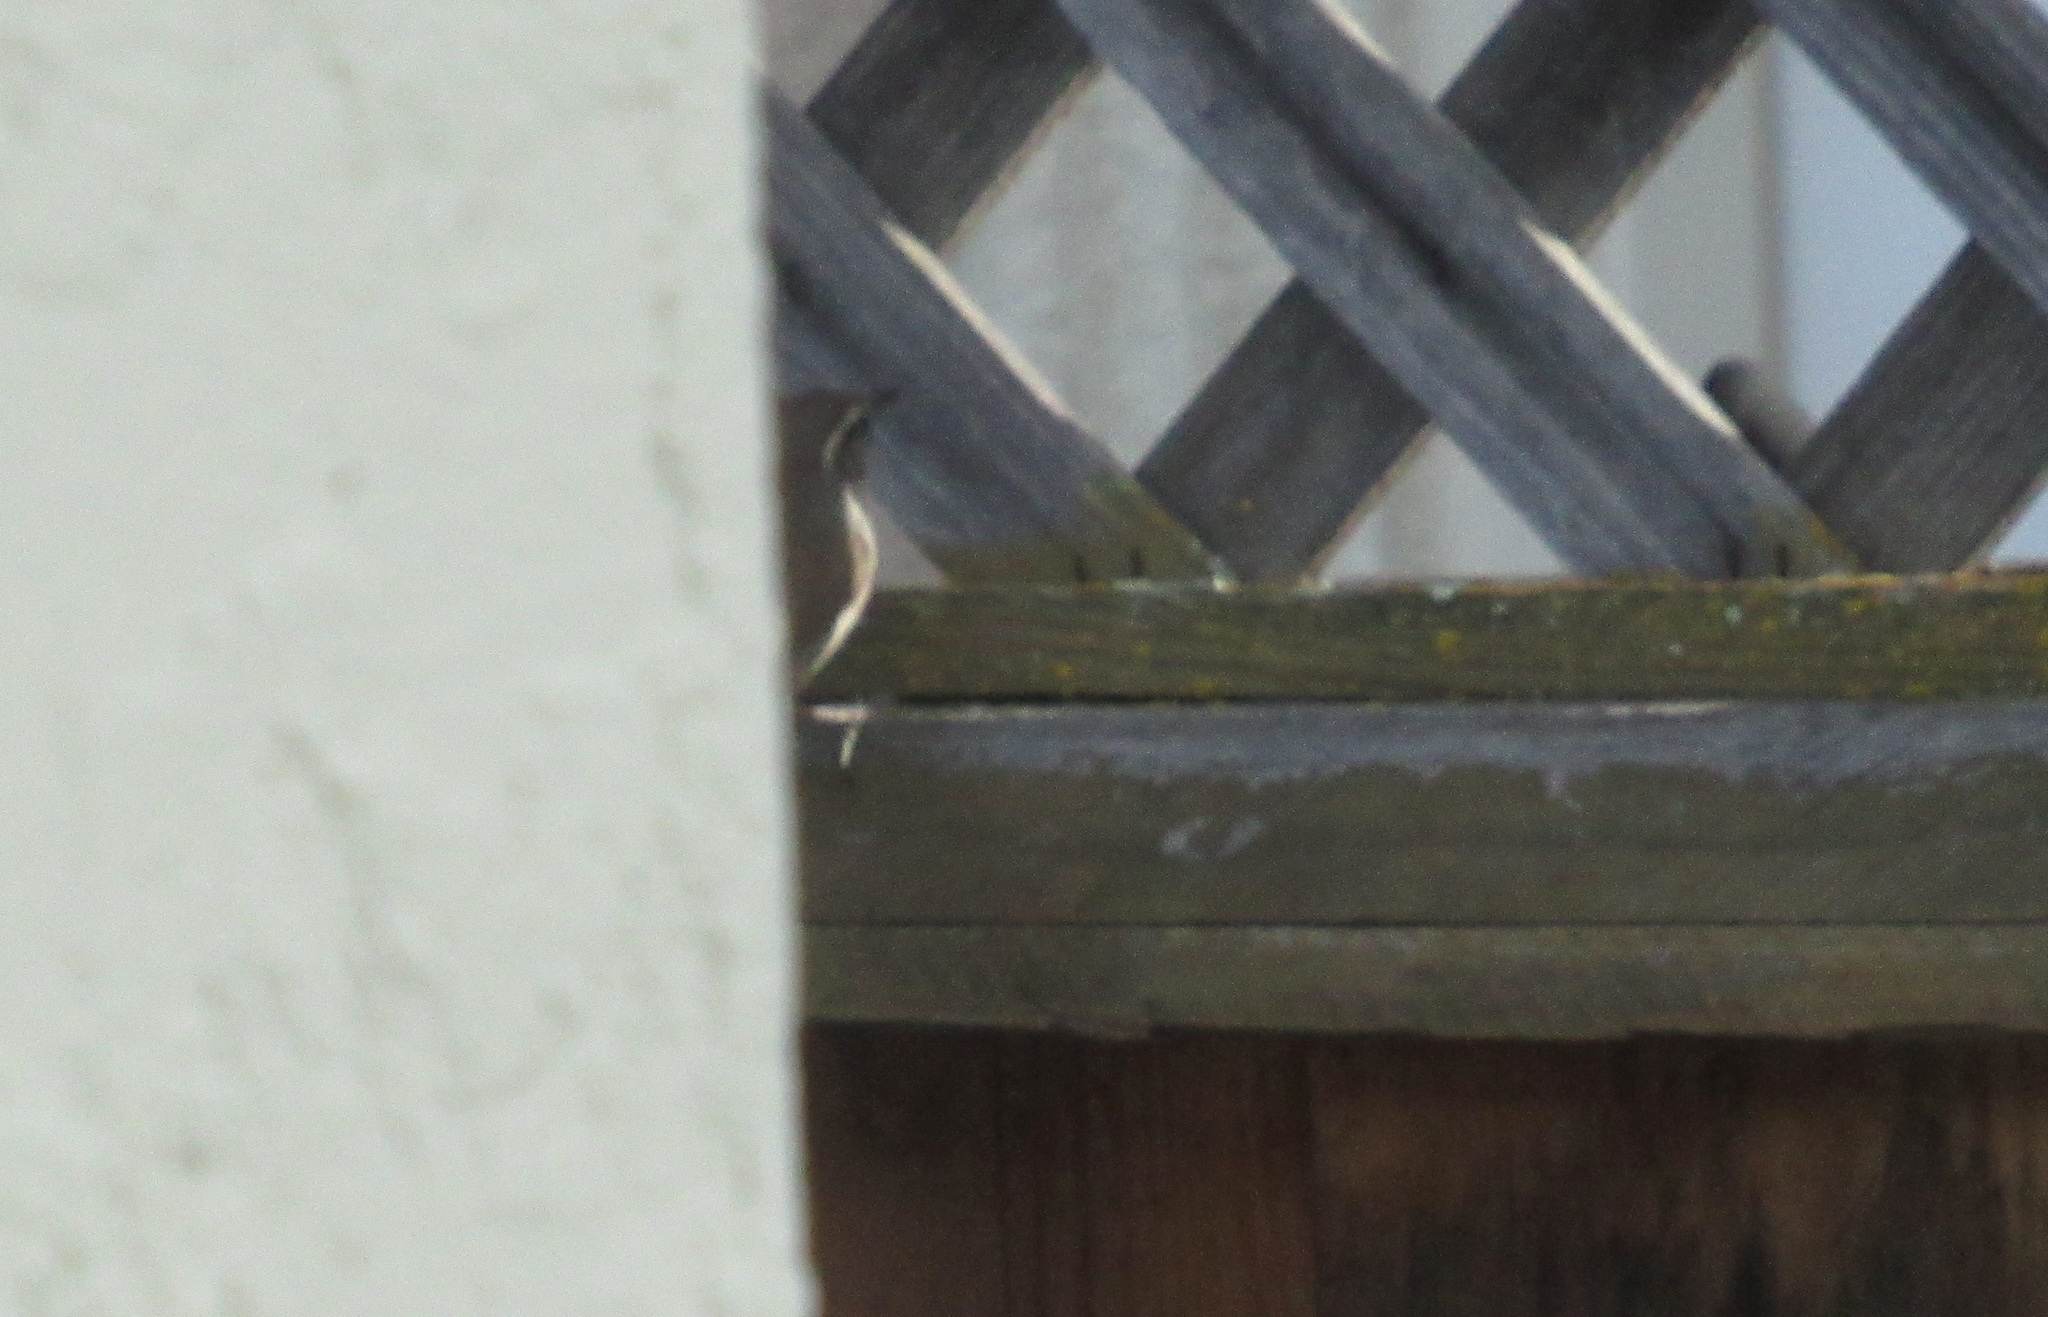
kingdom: Animalia
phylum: Chordata
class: Aves
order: Passeriformes
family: Troglodytidae
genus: Thryomanes
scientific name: Thryomanes bewickii
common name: Bewick's wren
